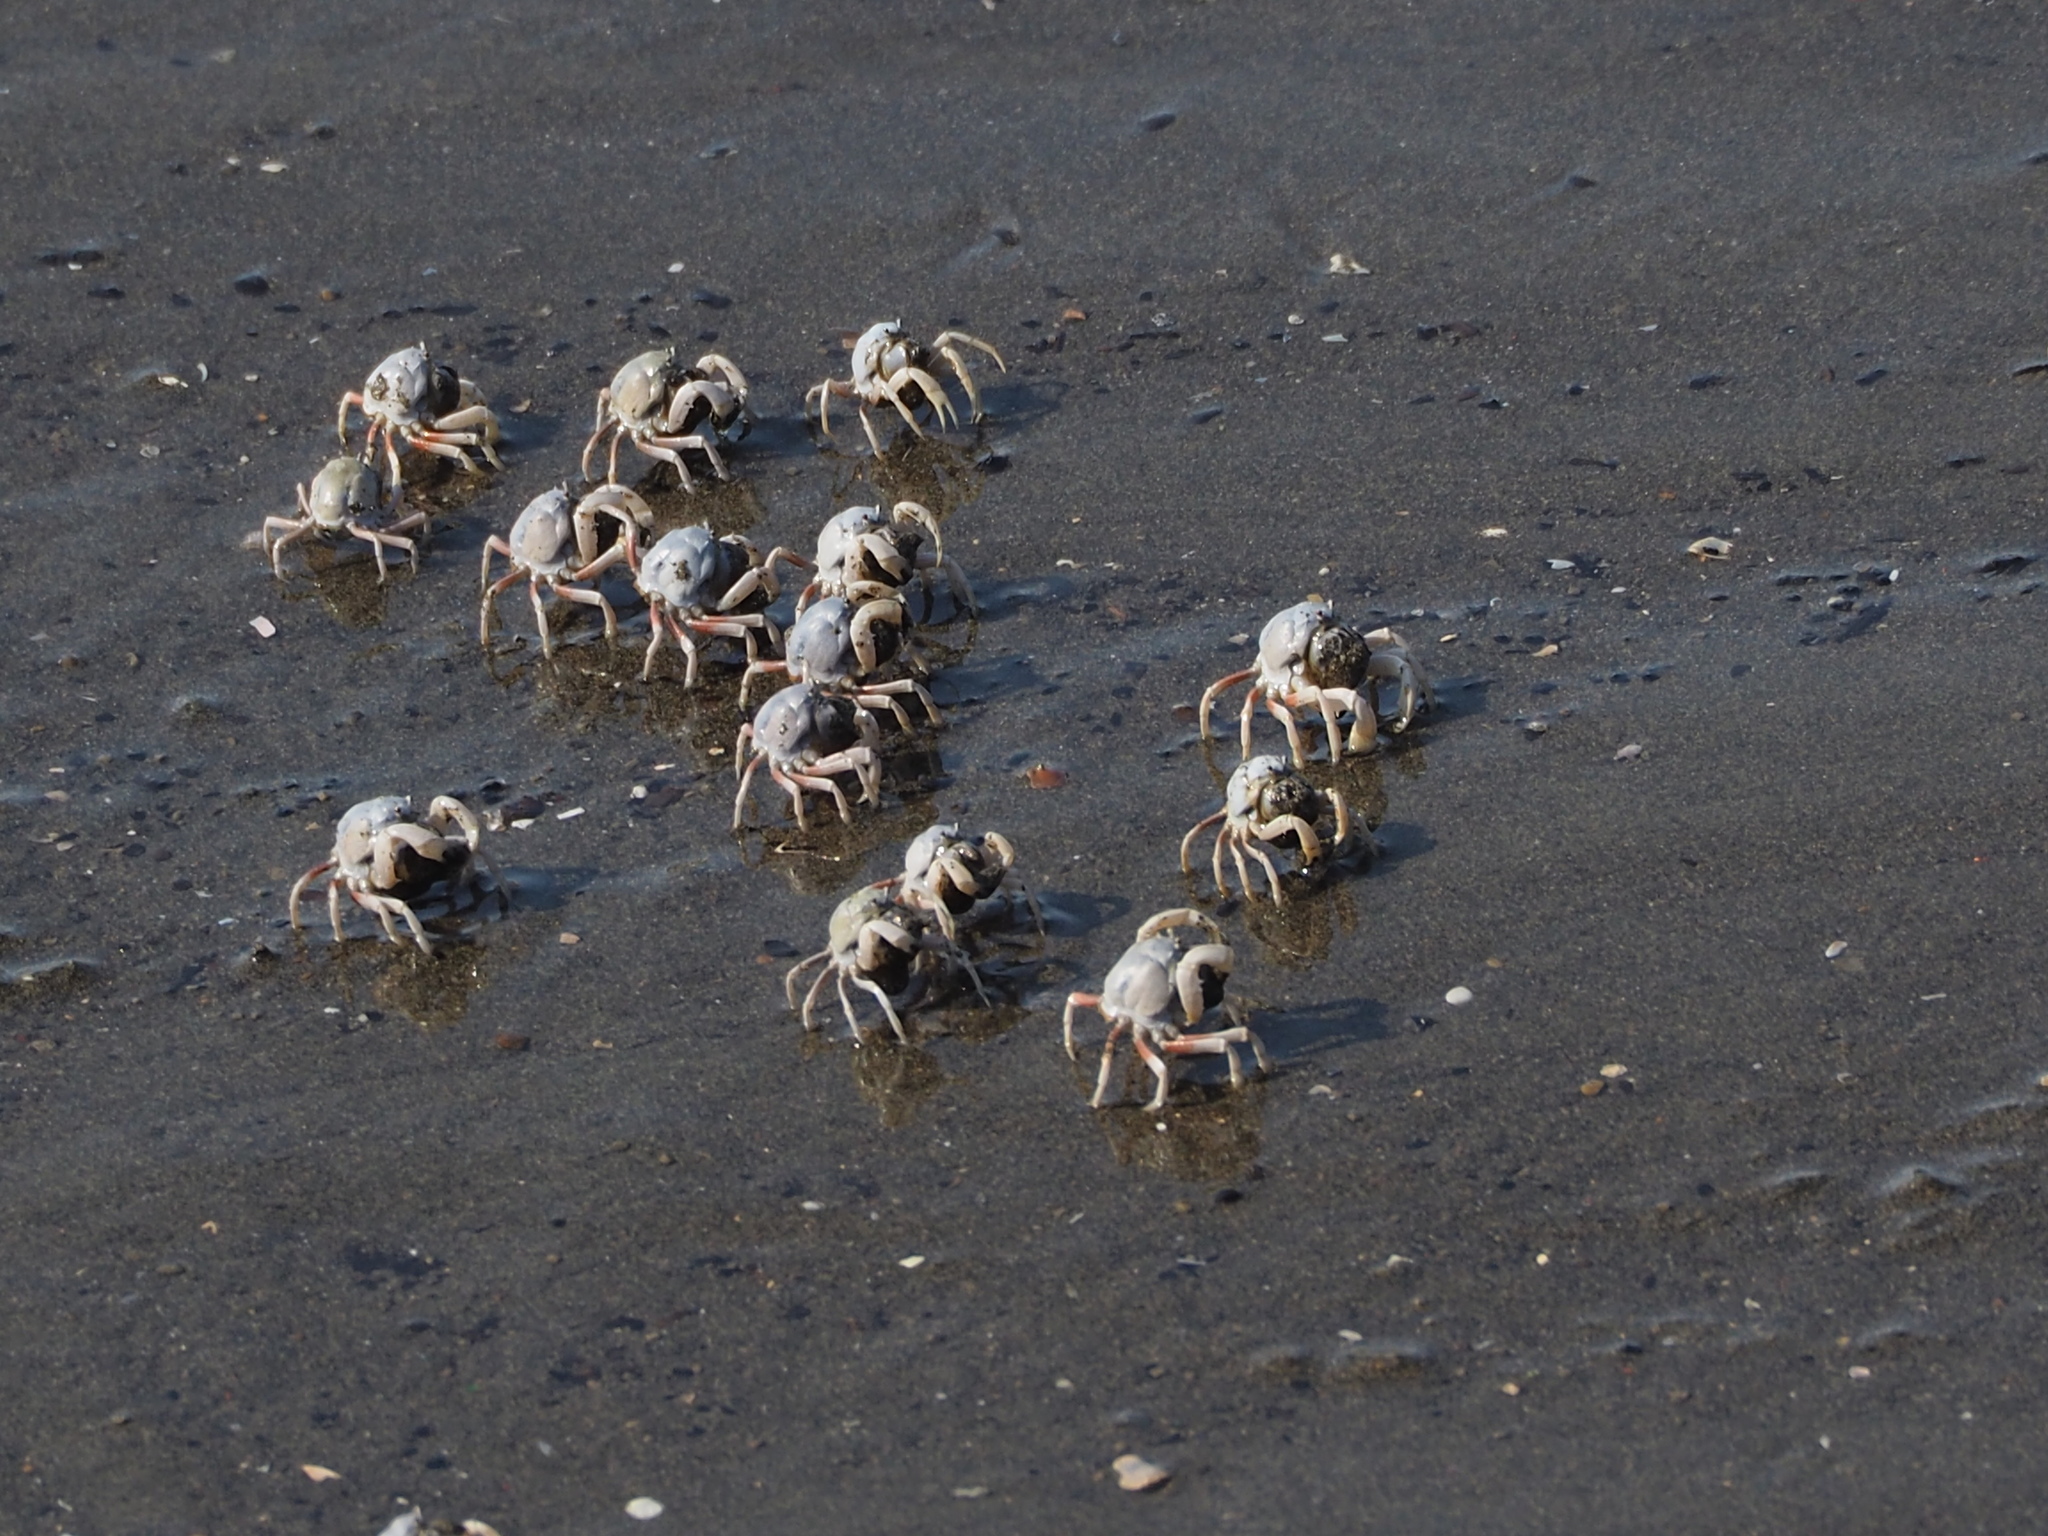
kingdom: Animalia
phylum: Arthropoda
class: Malacostraca
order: Decapoda
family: Mictyridae
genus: Mictyris
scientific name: Mictyris brevidactylus
